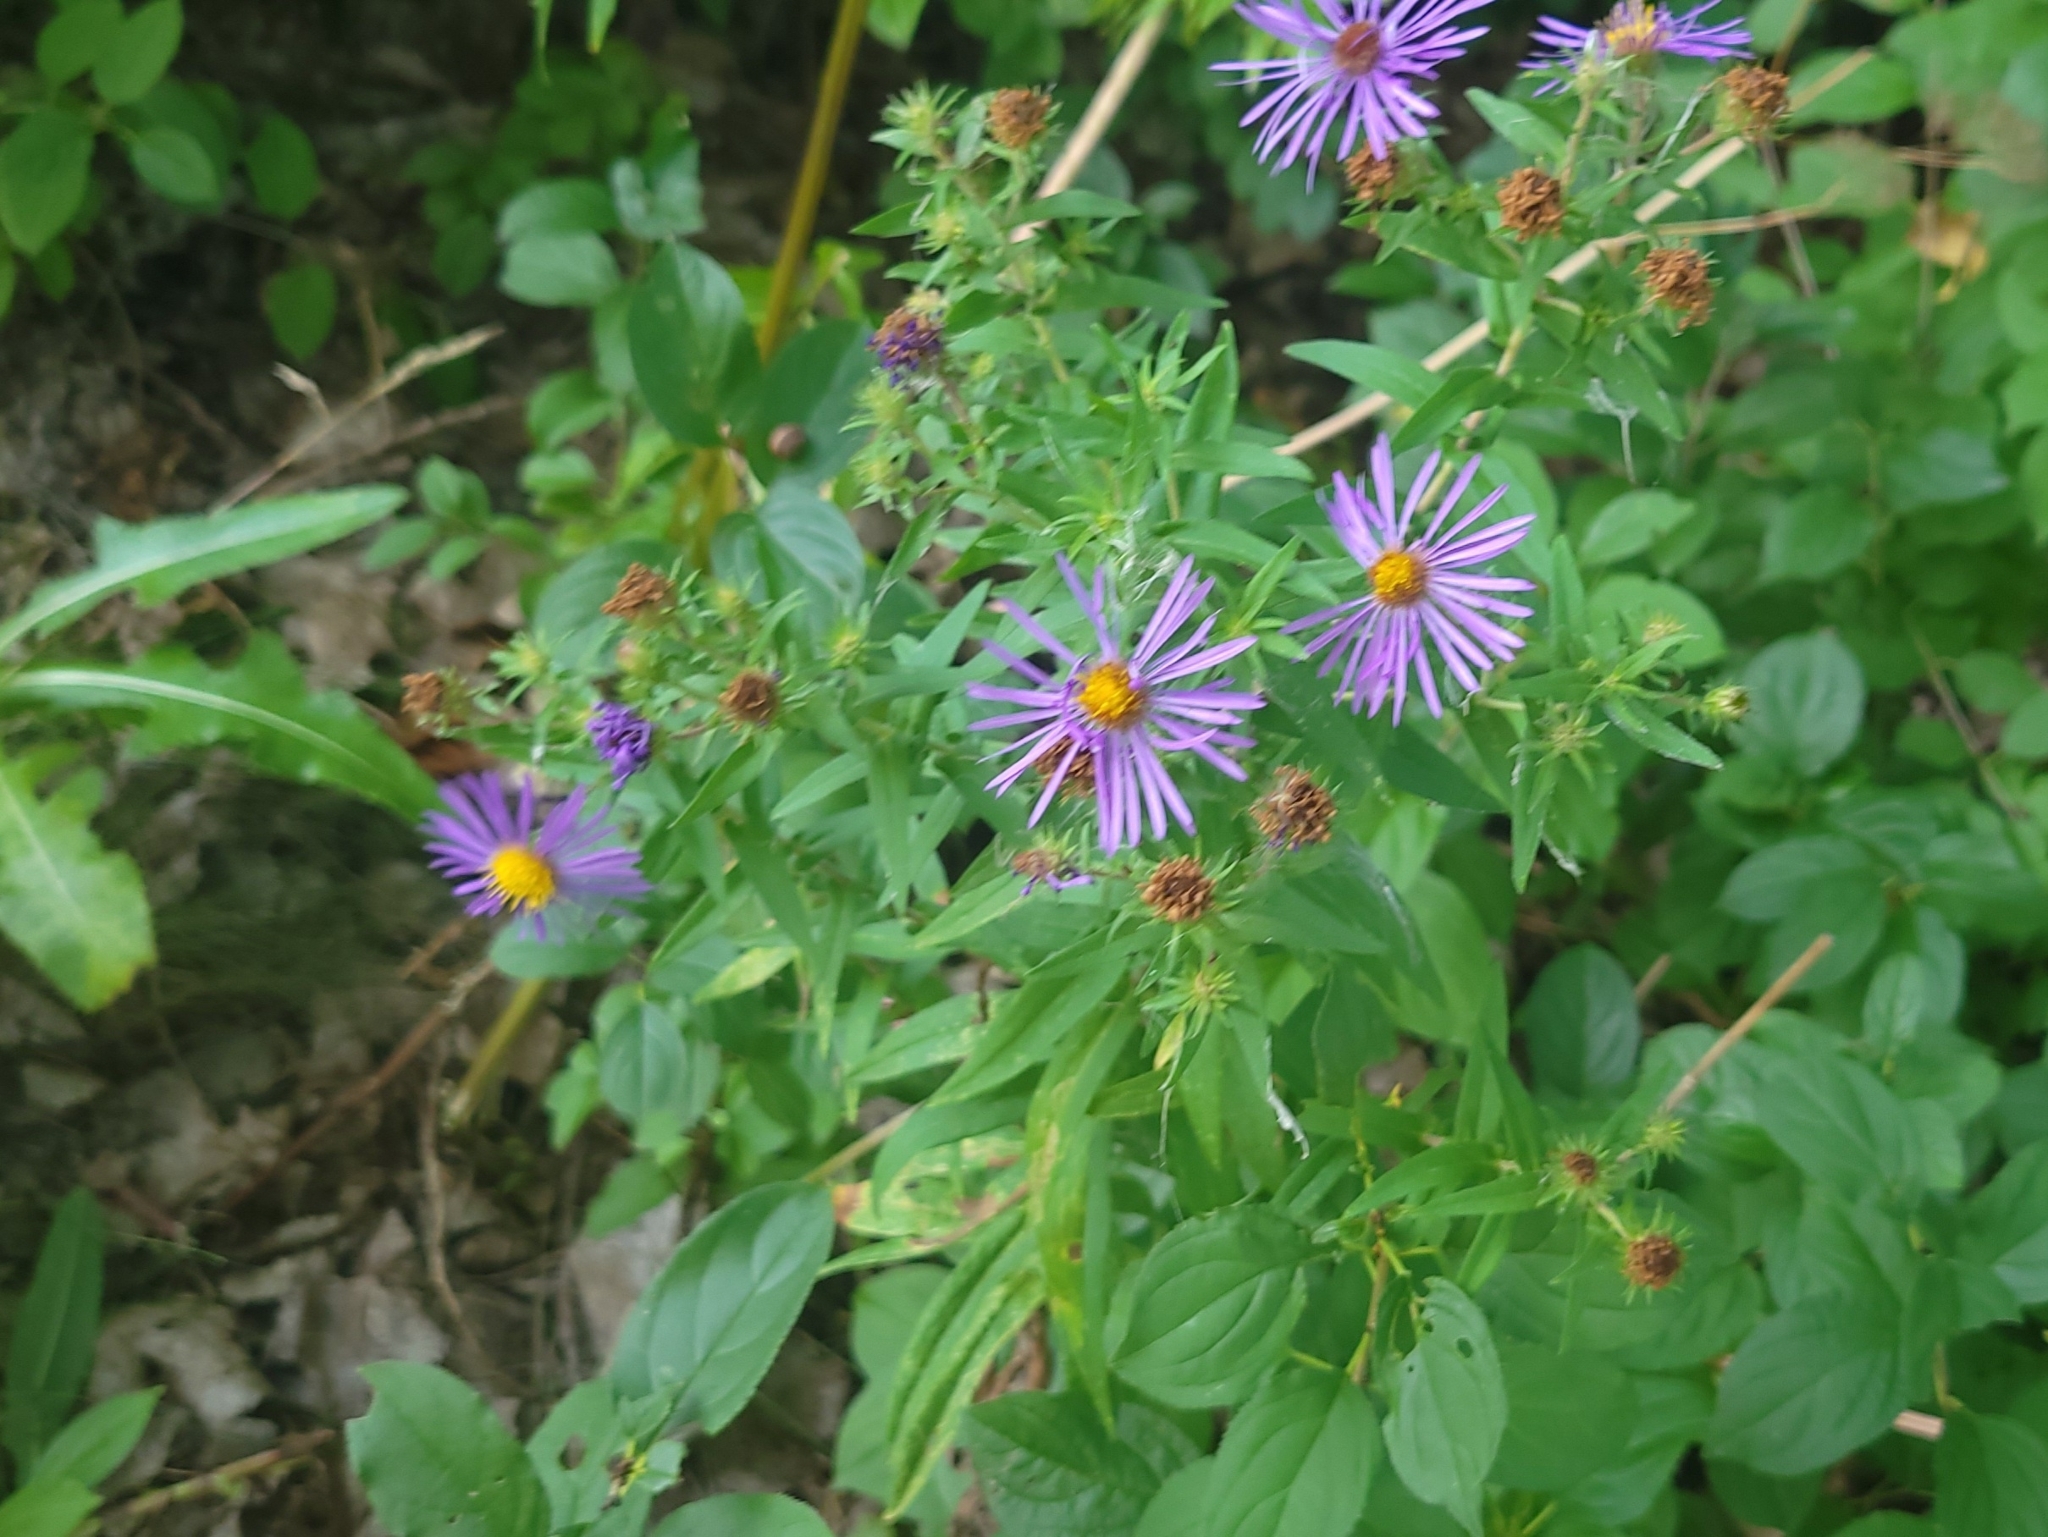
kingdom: Plantae
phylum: Tracheophyta
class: Magnoliopsida
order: Asterales
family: Asteraceae
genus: Symphyotrichum
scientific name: Symphyotrichum novae-angliae
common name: Michaelmas daisy
